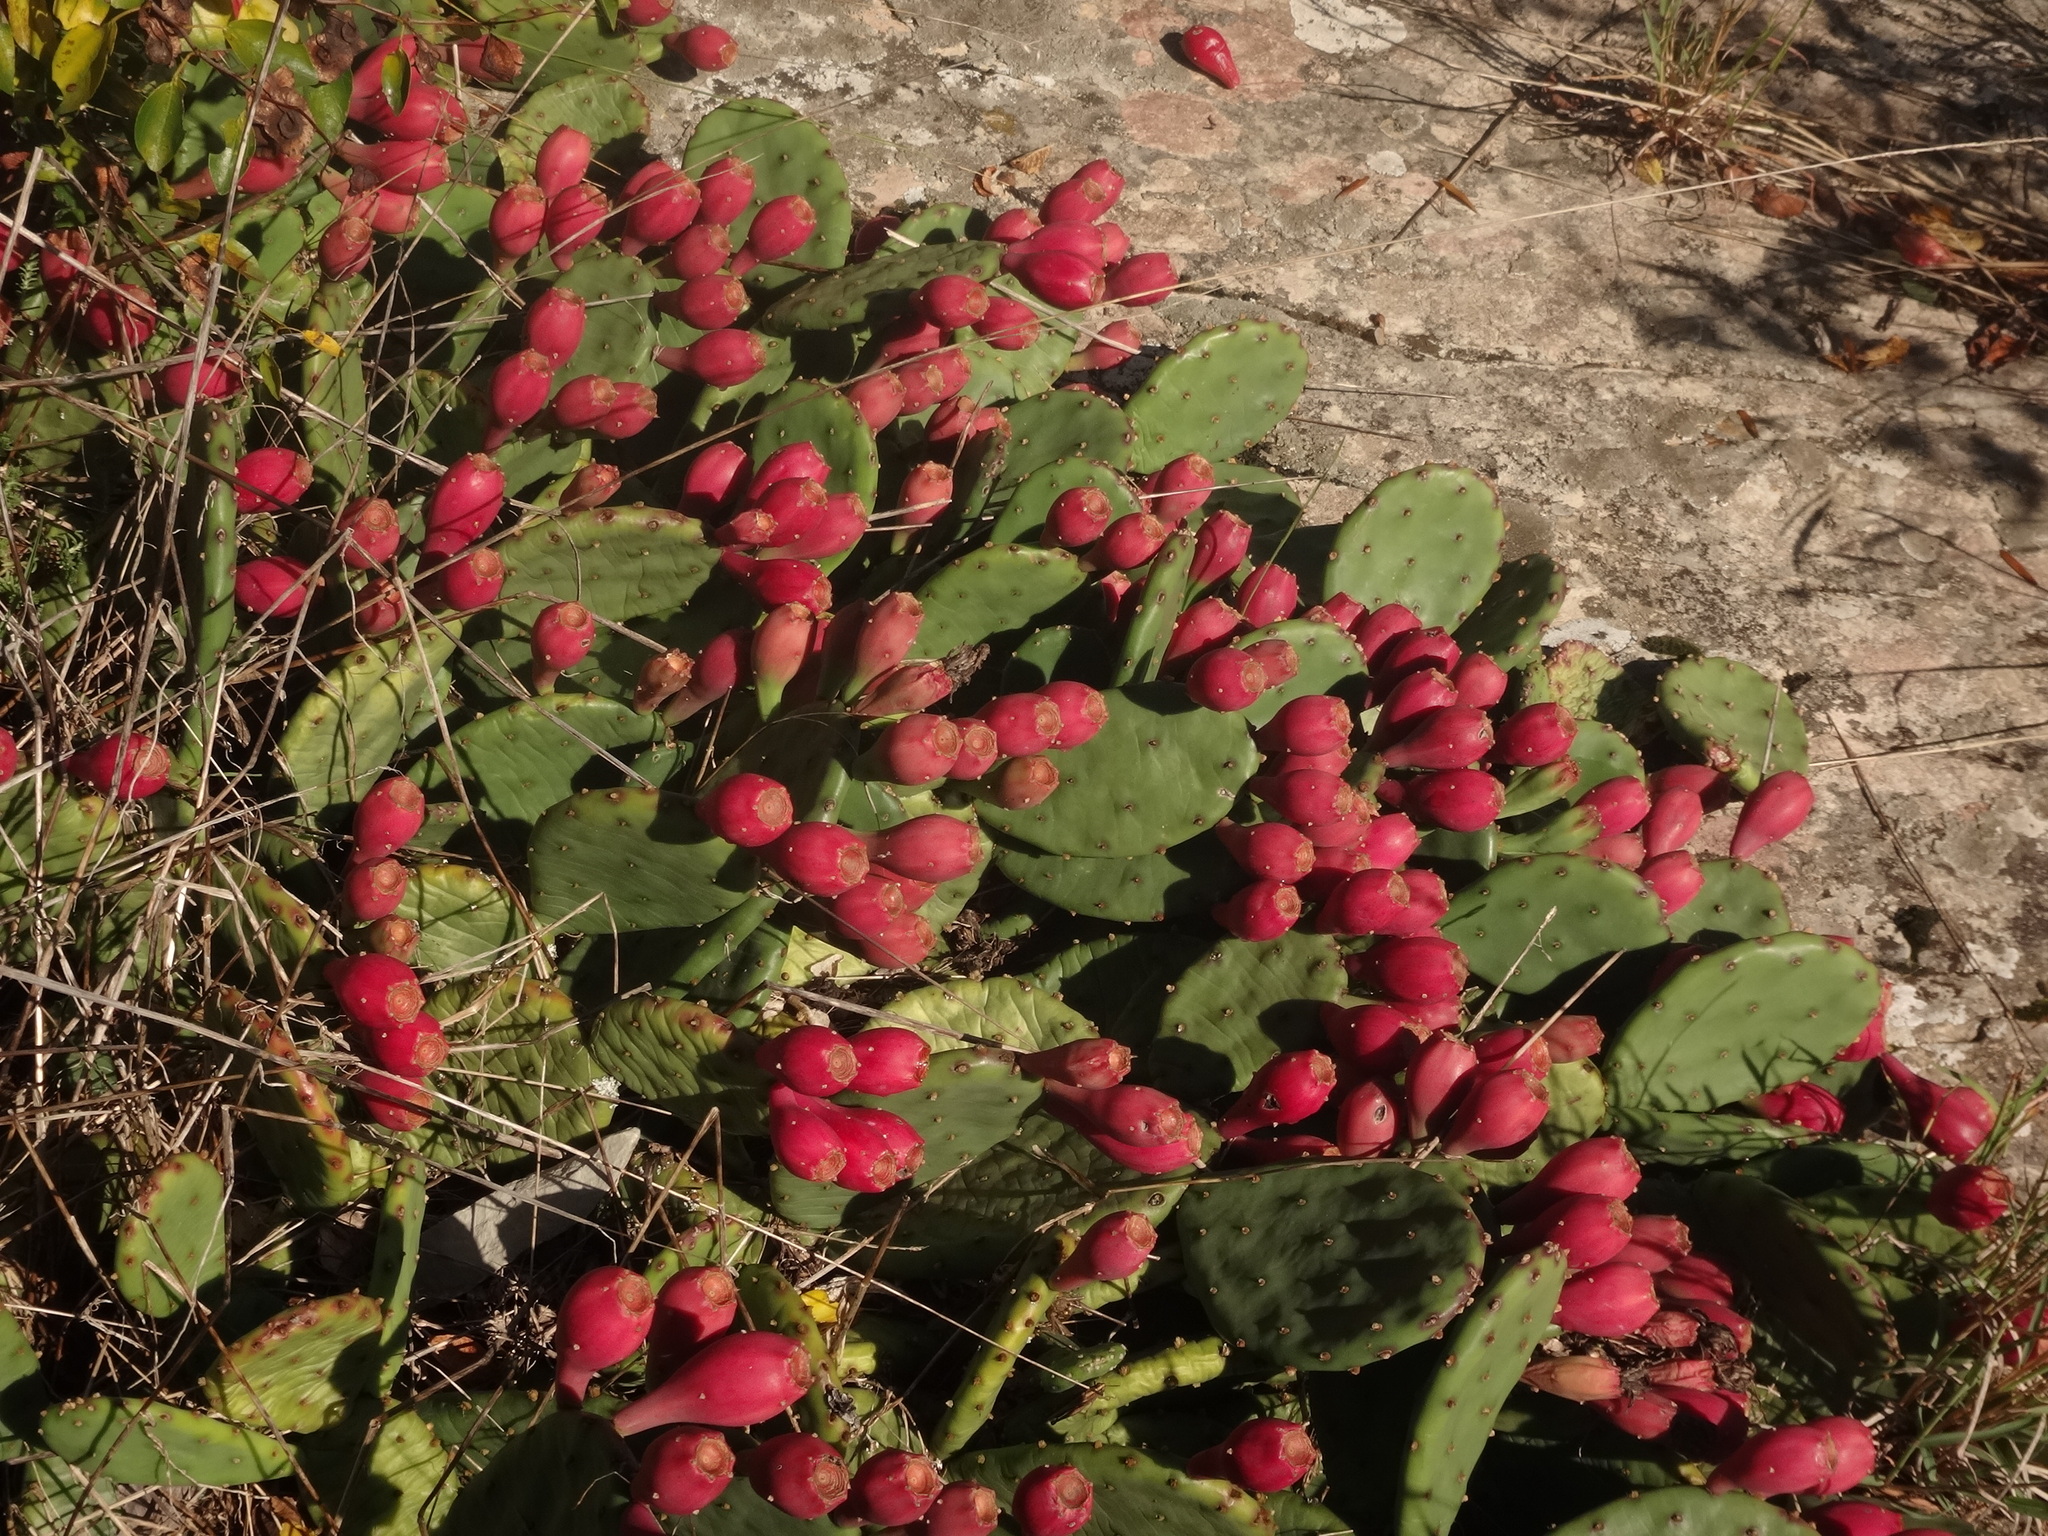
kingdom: Plantae
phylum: Tracheophyta
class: Magnoliopsida
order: Caryophyllales
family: Cactaceae
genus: Opuntia
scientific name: Opuntia humifusa
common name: Eastern prickly-pear
